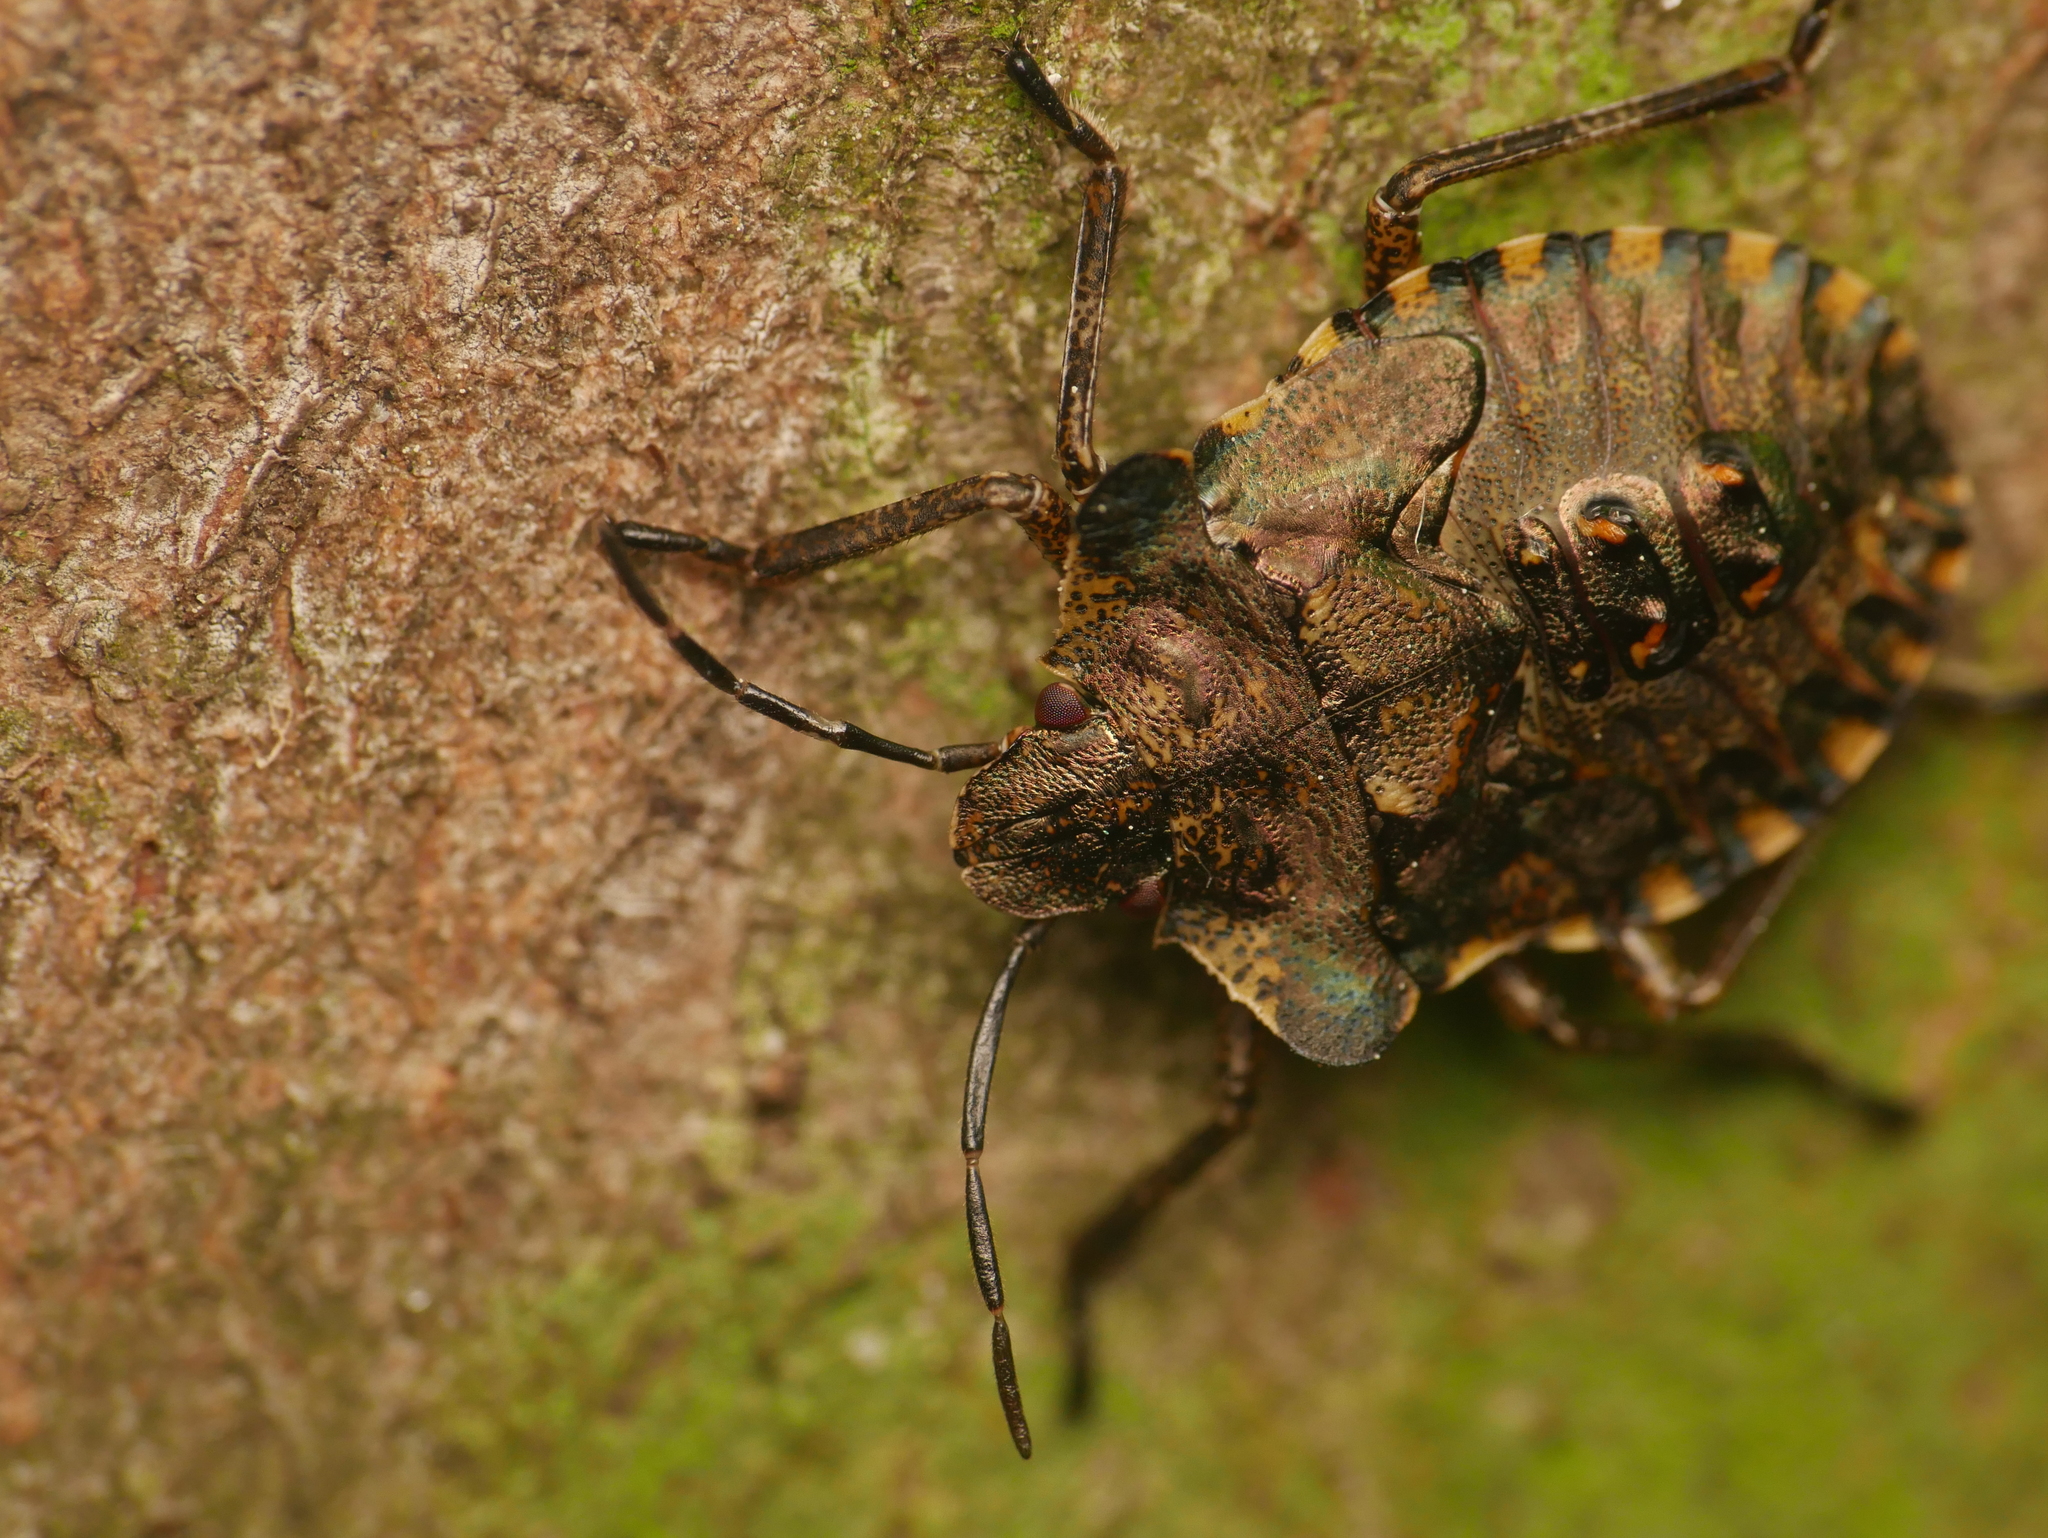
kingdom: Animalia
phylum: Arthropoda
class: Insecta
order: Hemiptera
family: Pentatomidae
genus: Pentatoma
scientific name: Pentatoma rufipes
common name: Forest bug
